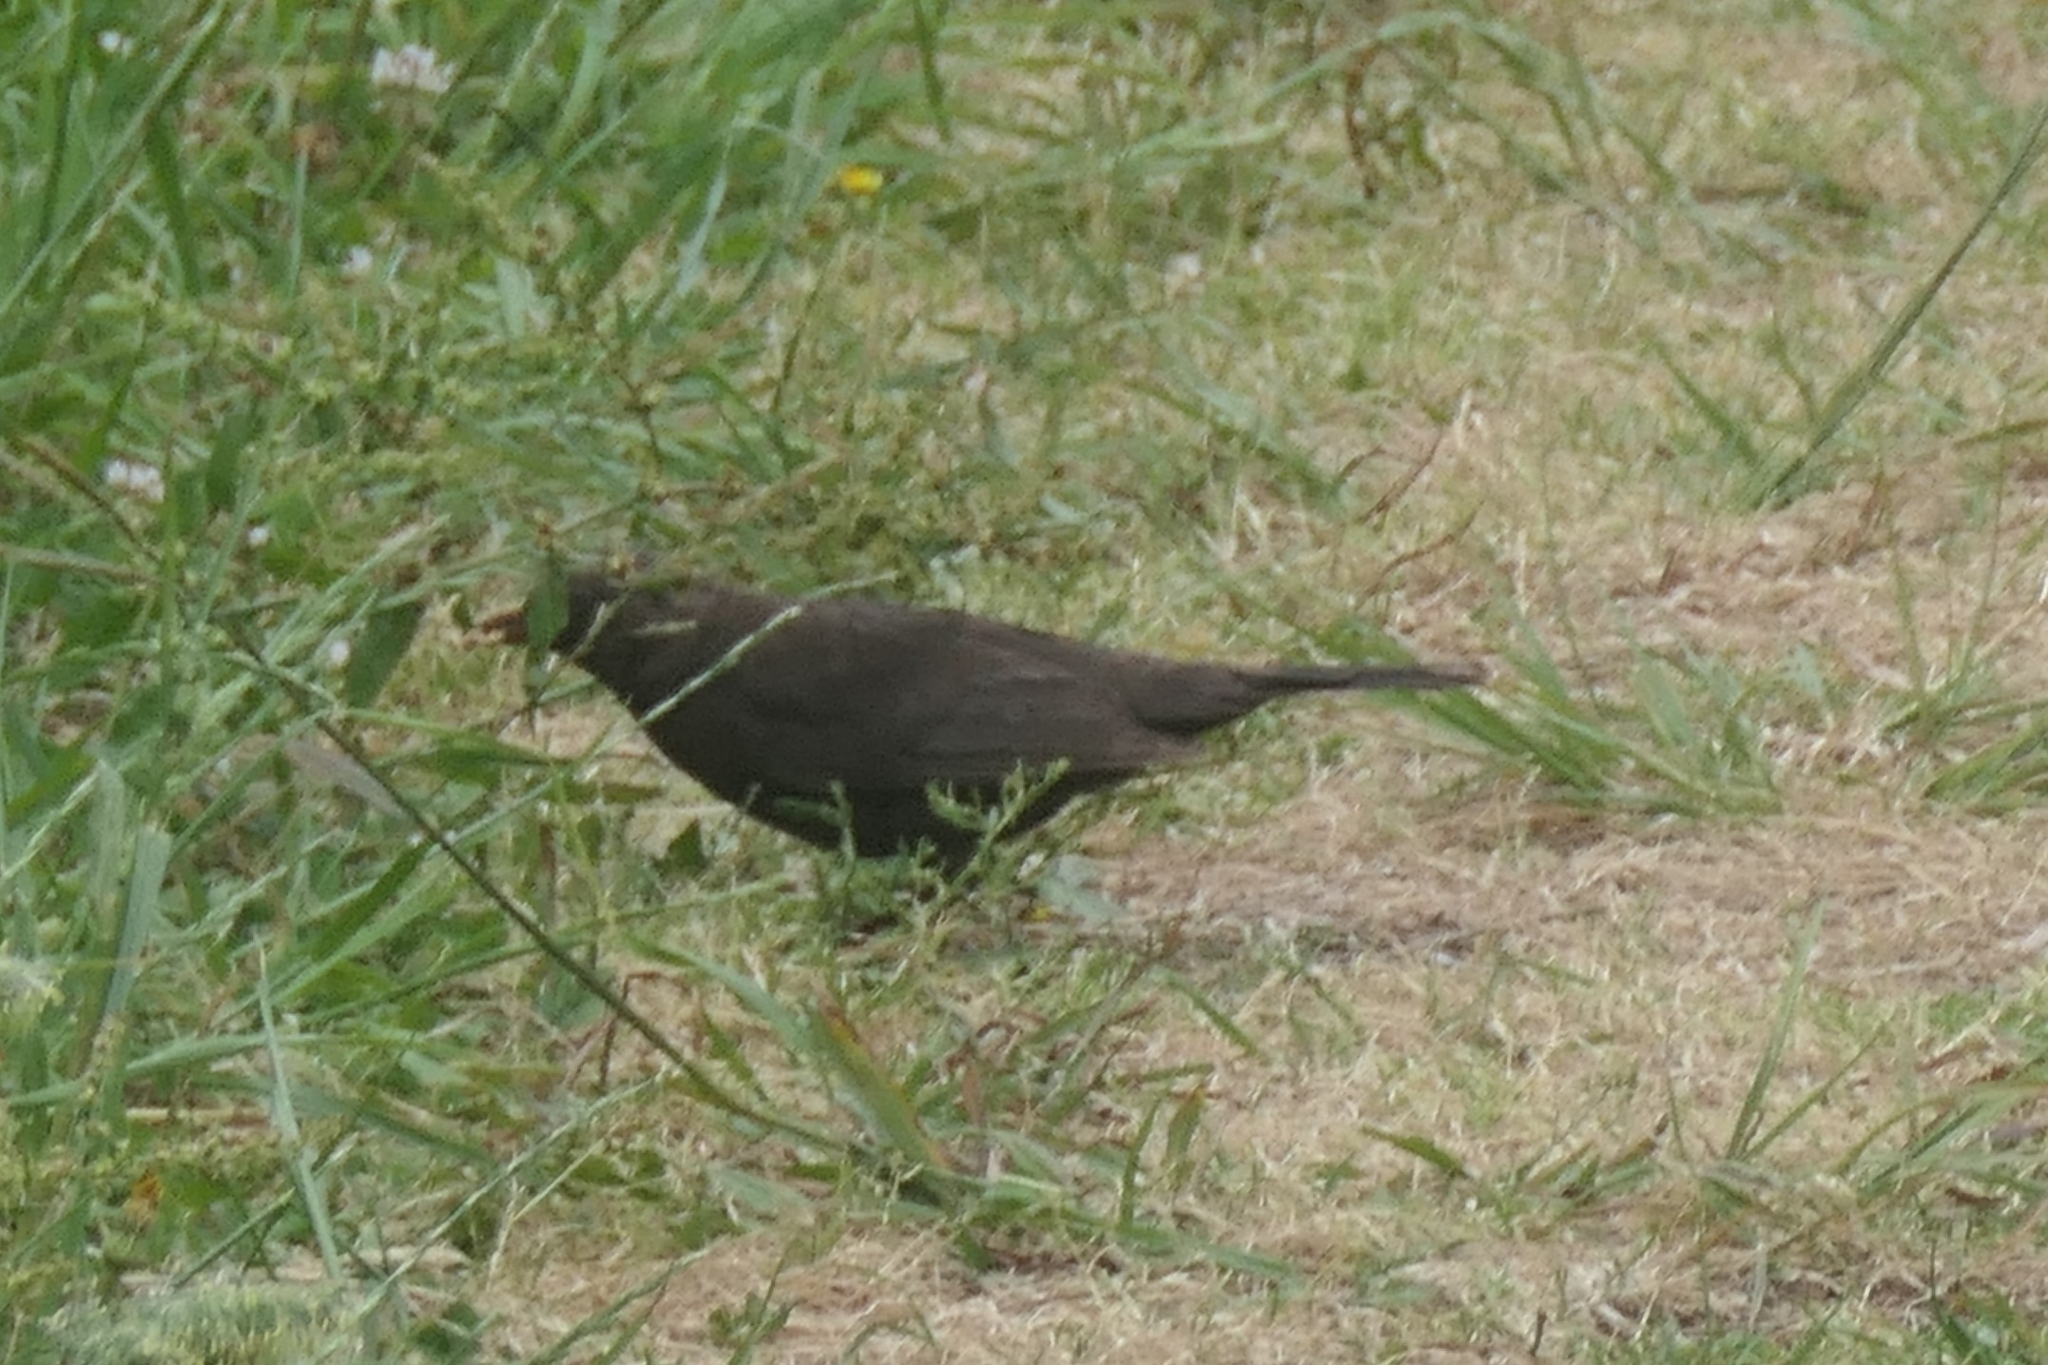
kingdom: Animalia
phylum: Chordata
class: Aves
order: Passeriformes
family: Turdidae
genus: Turdus
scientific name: Turdus merula
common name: Common blackbird
